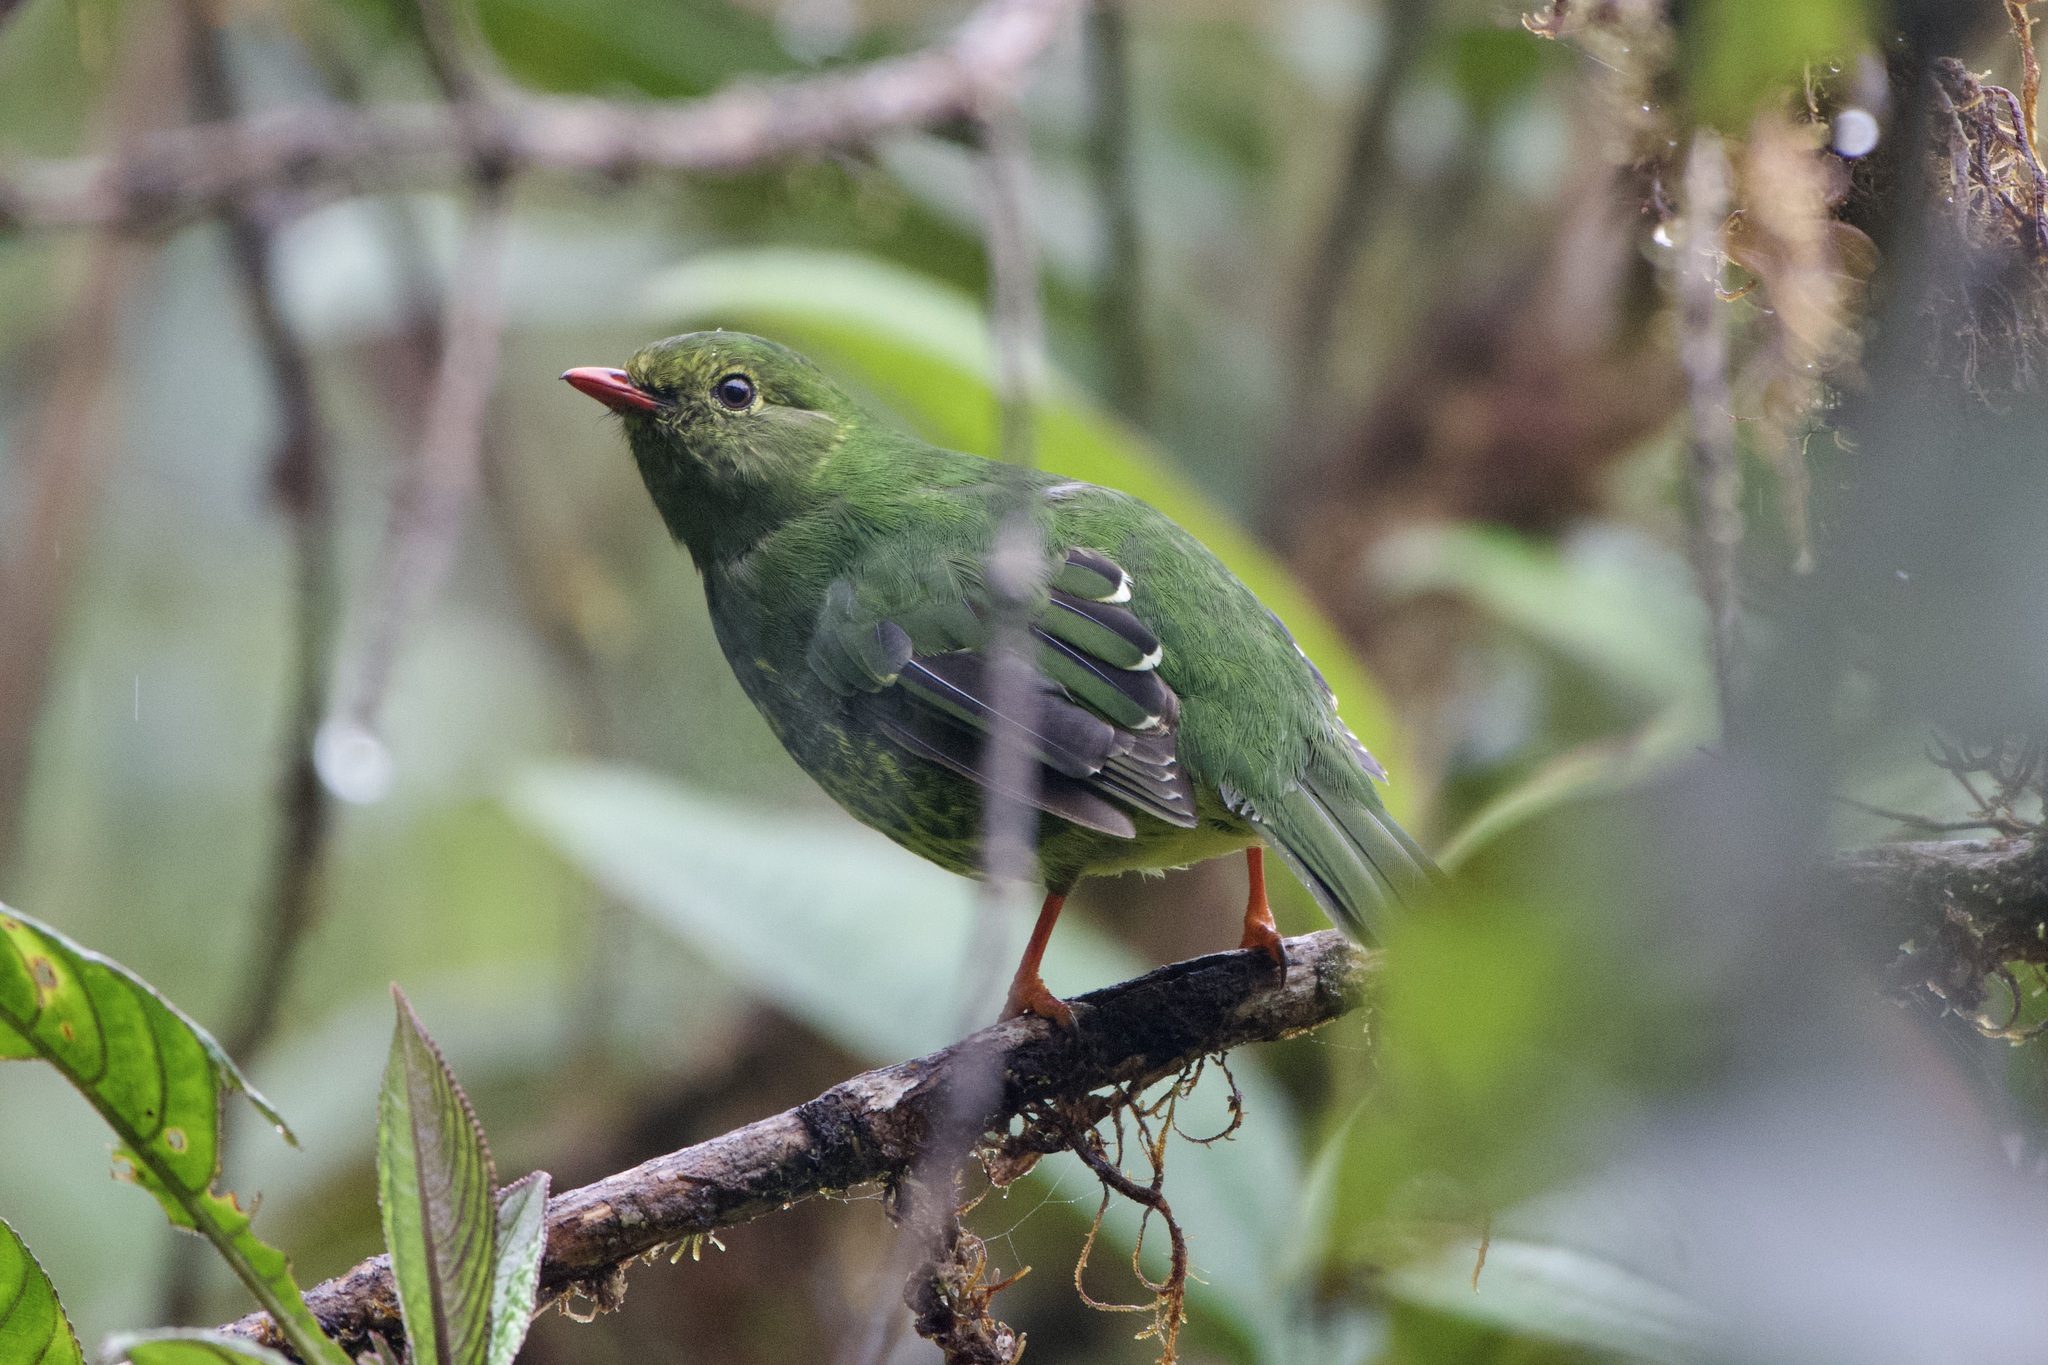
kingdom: Animalia
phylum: Chordata
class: Aves
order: Passeriformes
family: Cotingidae
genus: Pipreola
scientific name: Pipreola riefferii
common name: Green-and-black fruiteater
